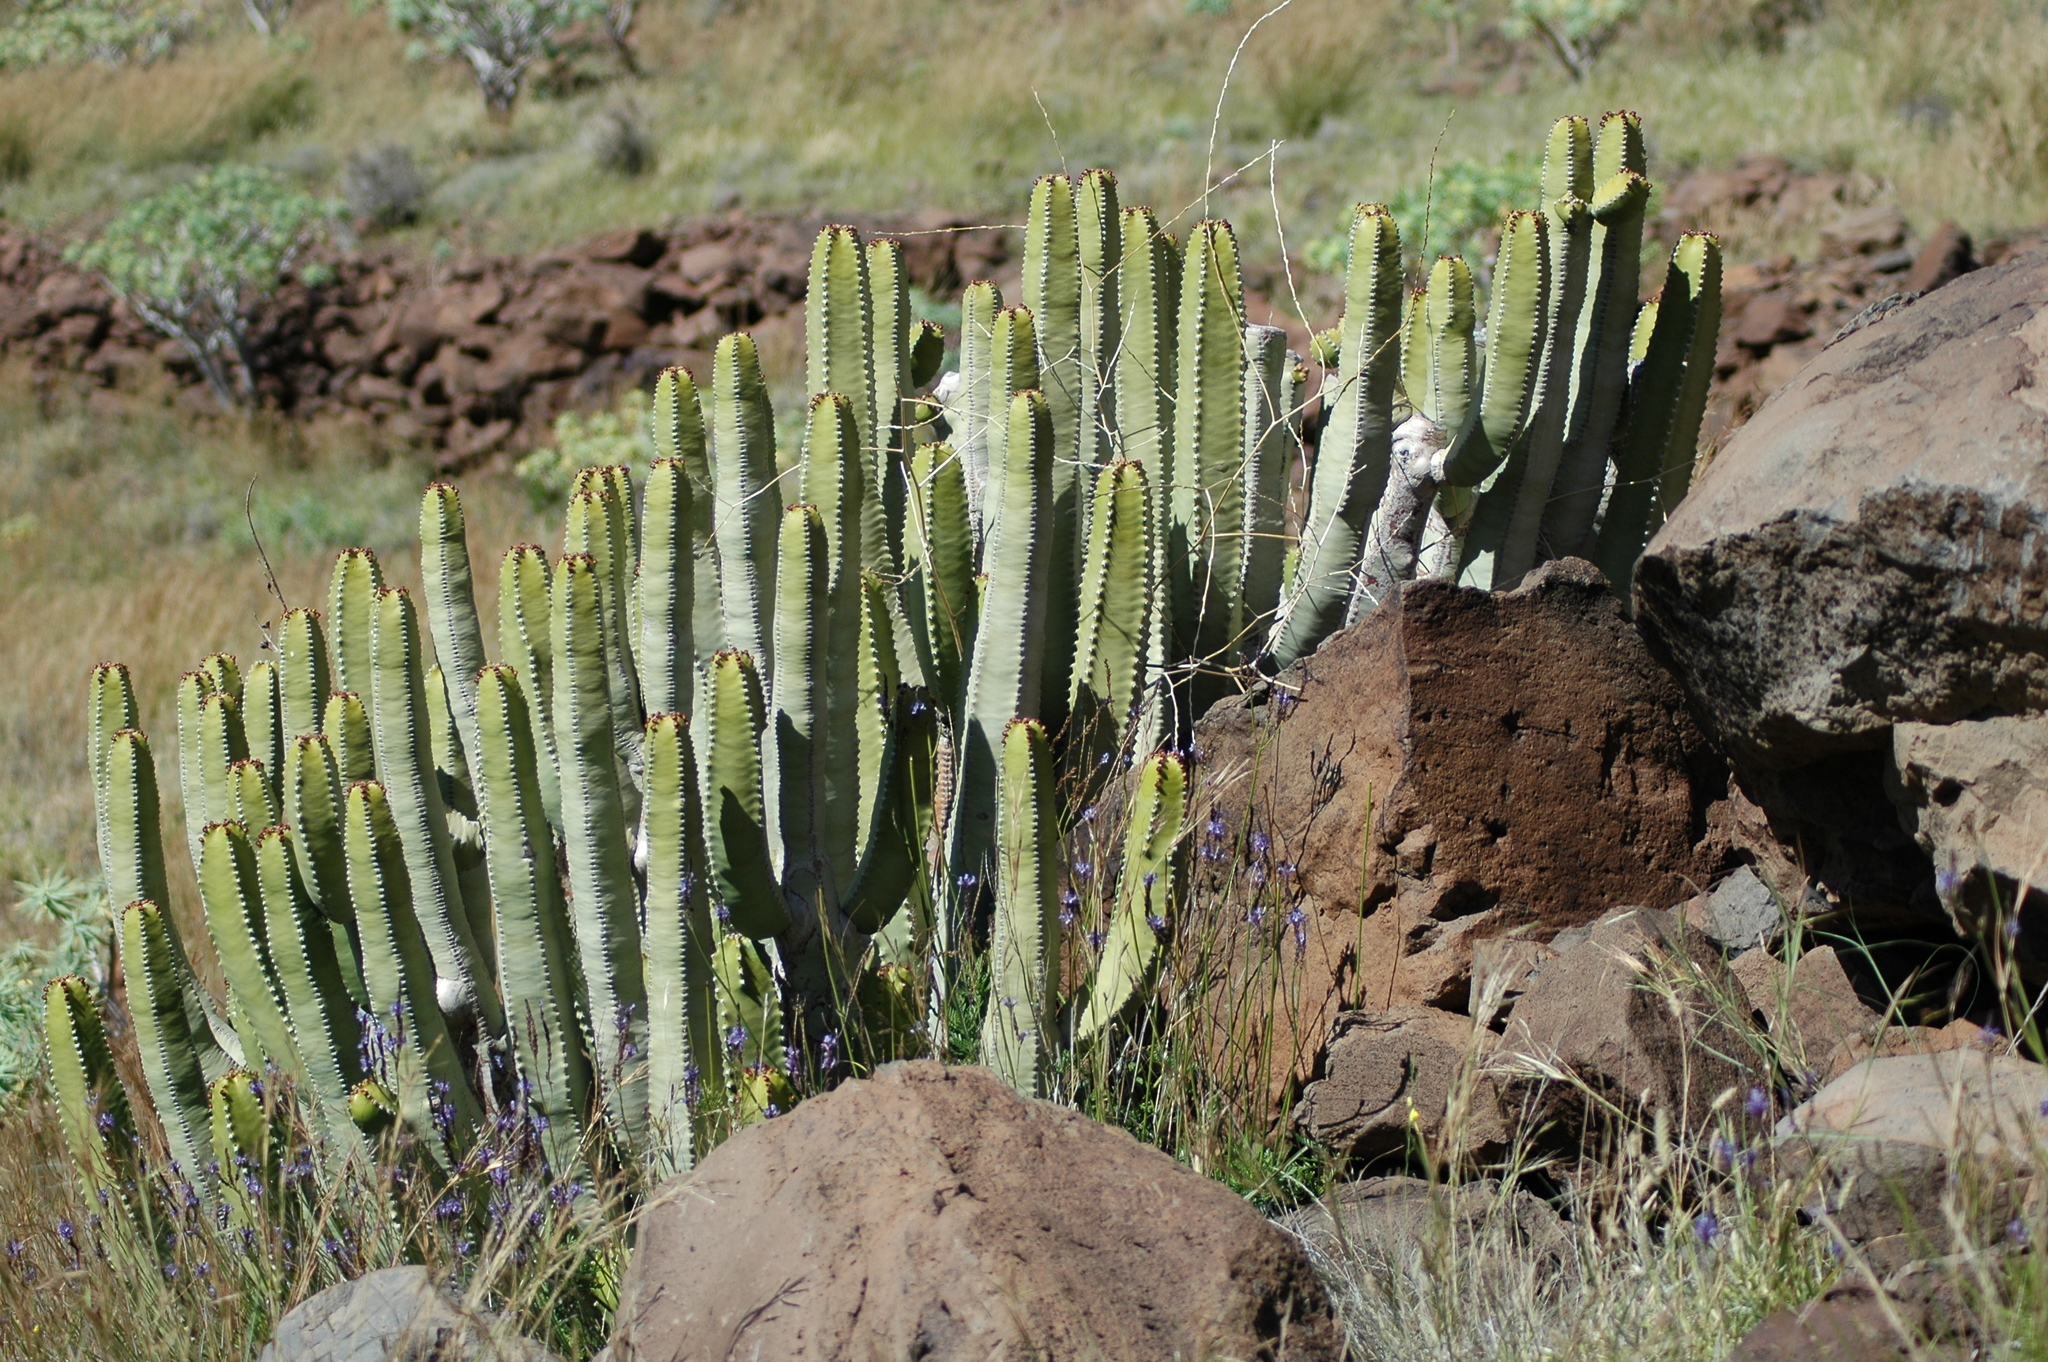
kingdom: Plantae
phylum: Tracheophyta
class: Magnoliopsida
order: Malpighiales
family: Euphorbiaceae
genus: Euphorbia
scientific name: Euphorbia canariensis
